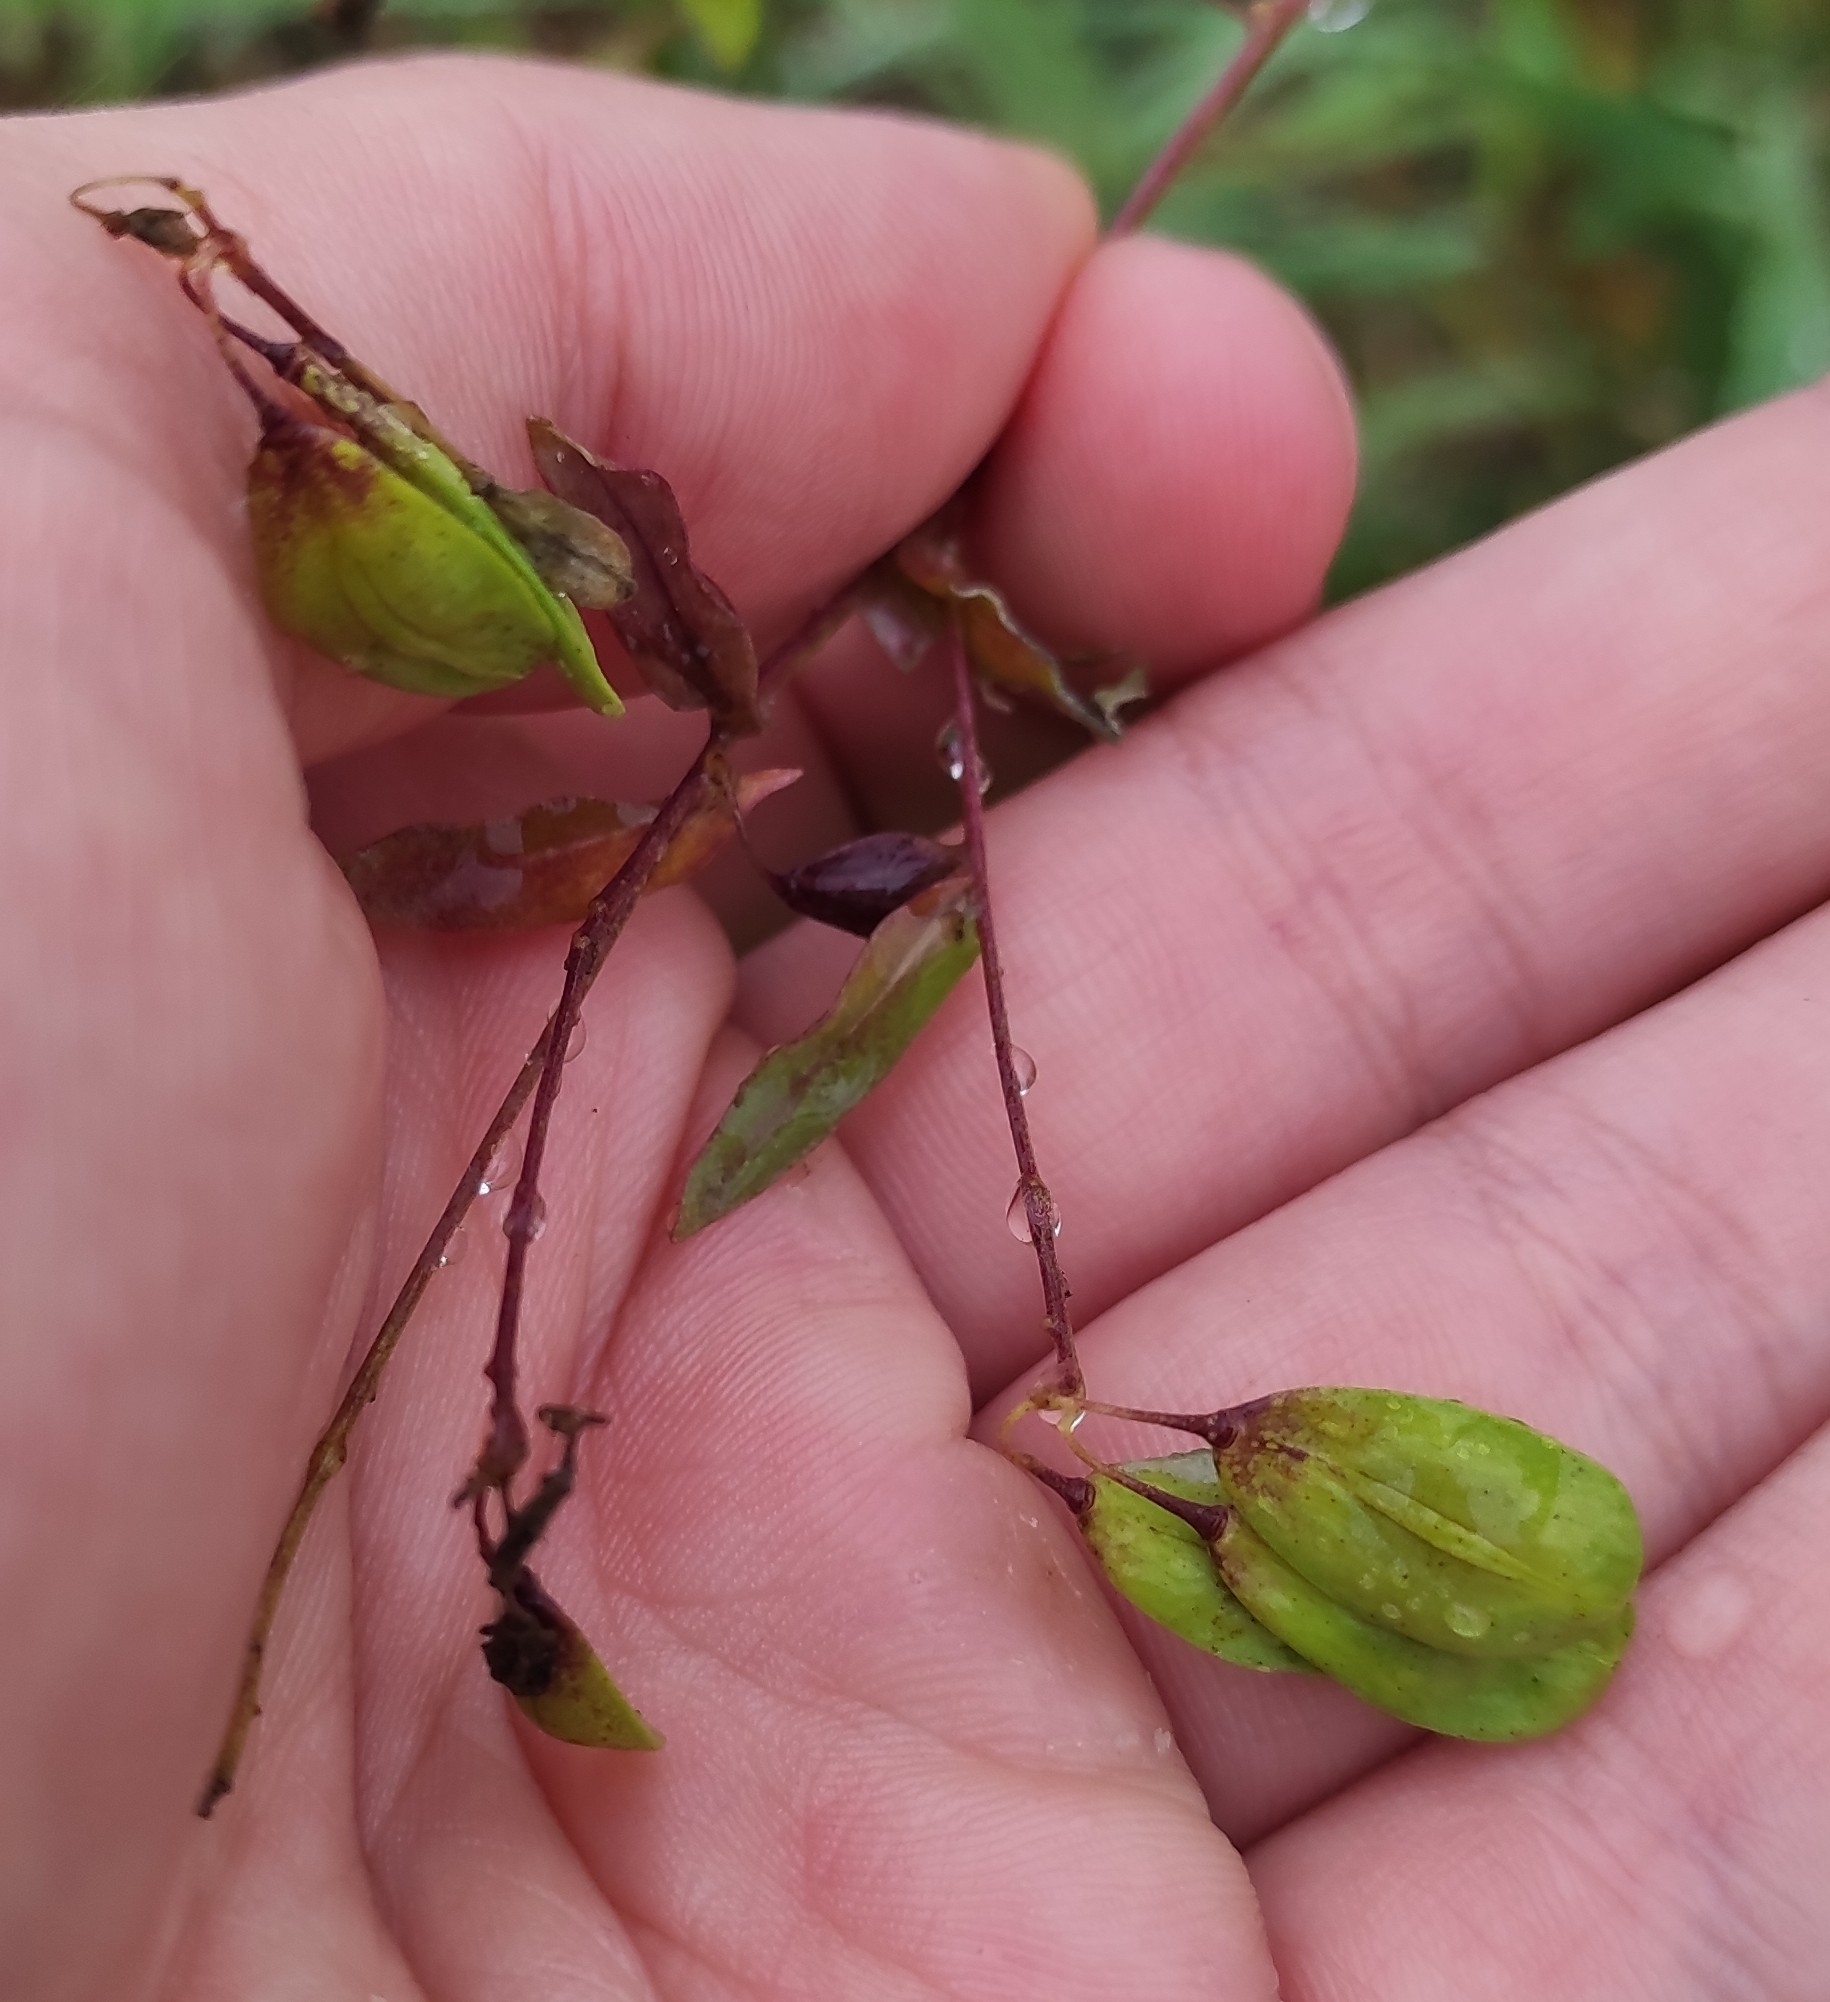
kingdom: Plantae
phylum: Tracheophyta
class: Magnoliopsida
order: Brassicales
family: Brassicaceae
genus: Isatis
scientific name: Isatis tinctoria
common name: Woad
